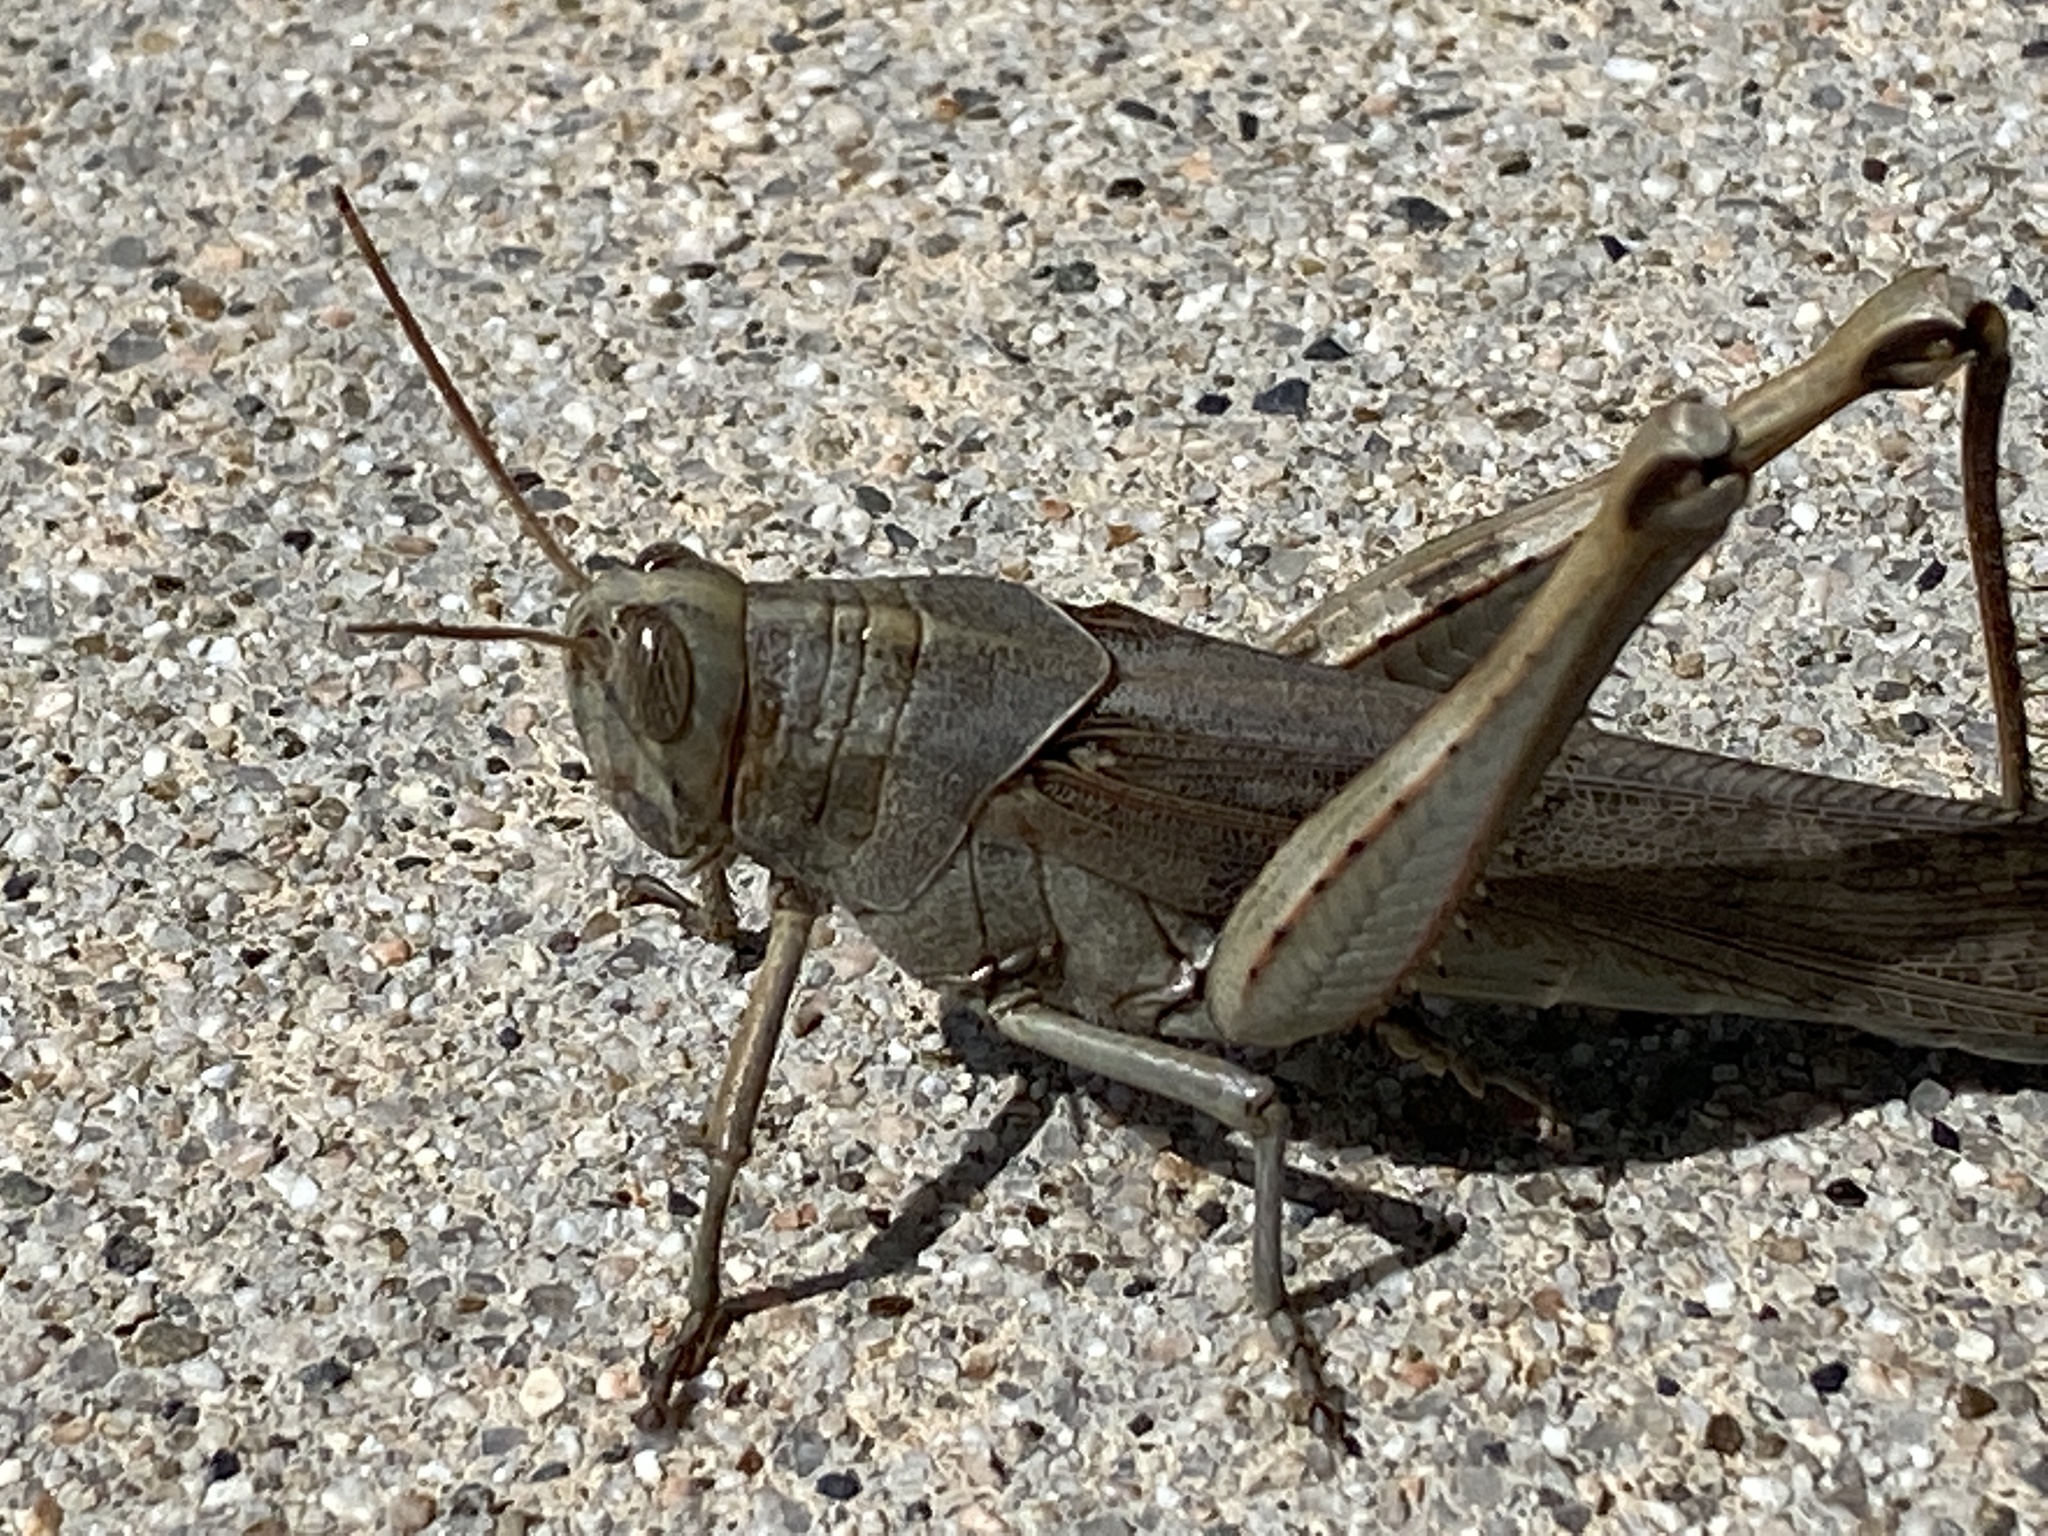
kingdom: Animalia
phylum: Arthropoda
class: Insecta
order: Orthoptera
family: Acrididae
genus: Schistocerca
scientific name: Schistocerca nitens
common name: Vagrant grasshopper
